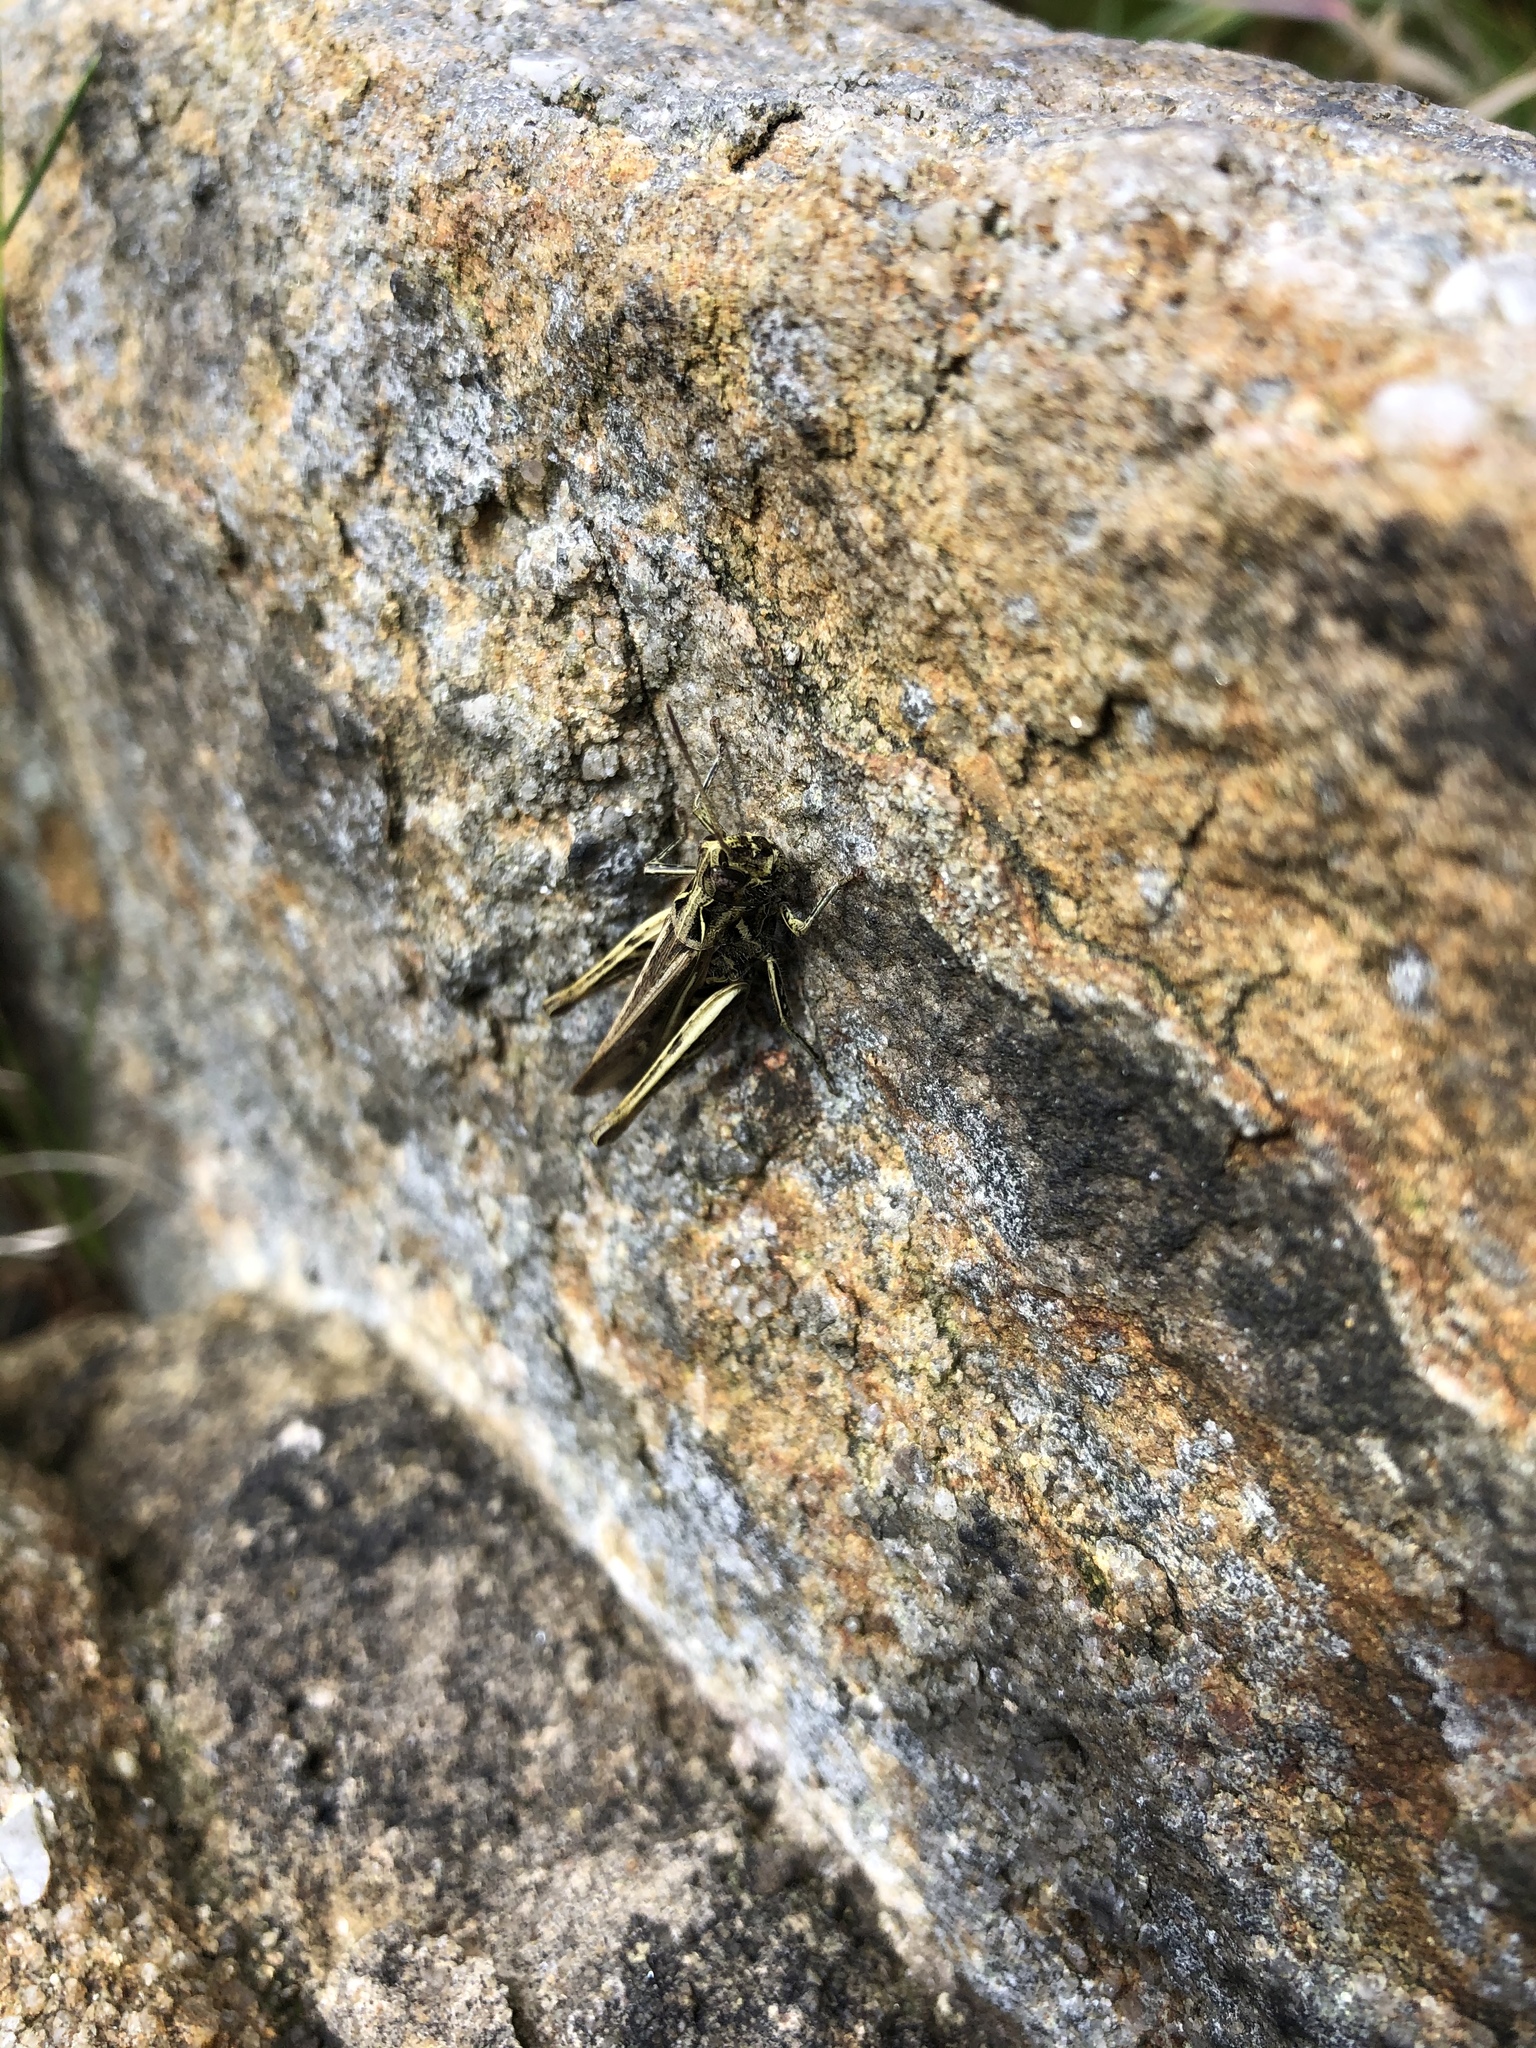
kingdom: Animalia
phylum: Arthropoda
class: Insecta
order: Orthoptera
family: Acrididae
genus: Chorthippus
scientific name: Chorthippus brunneus
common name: Field grasshopper
